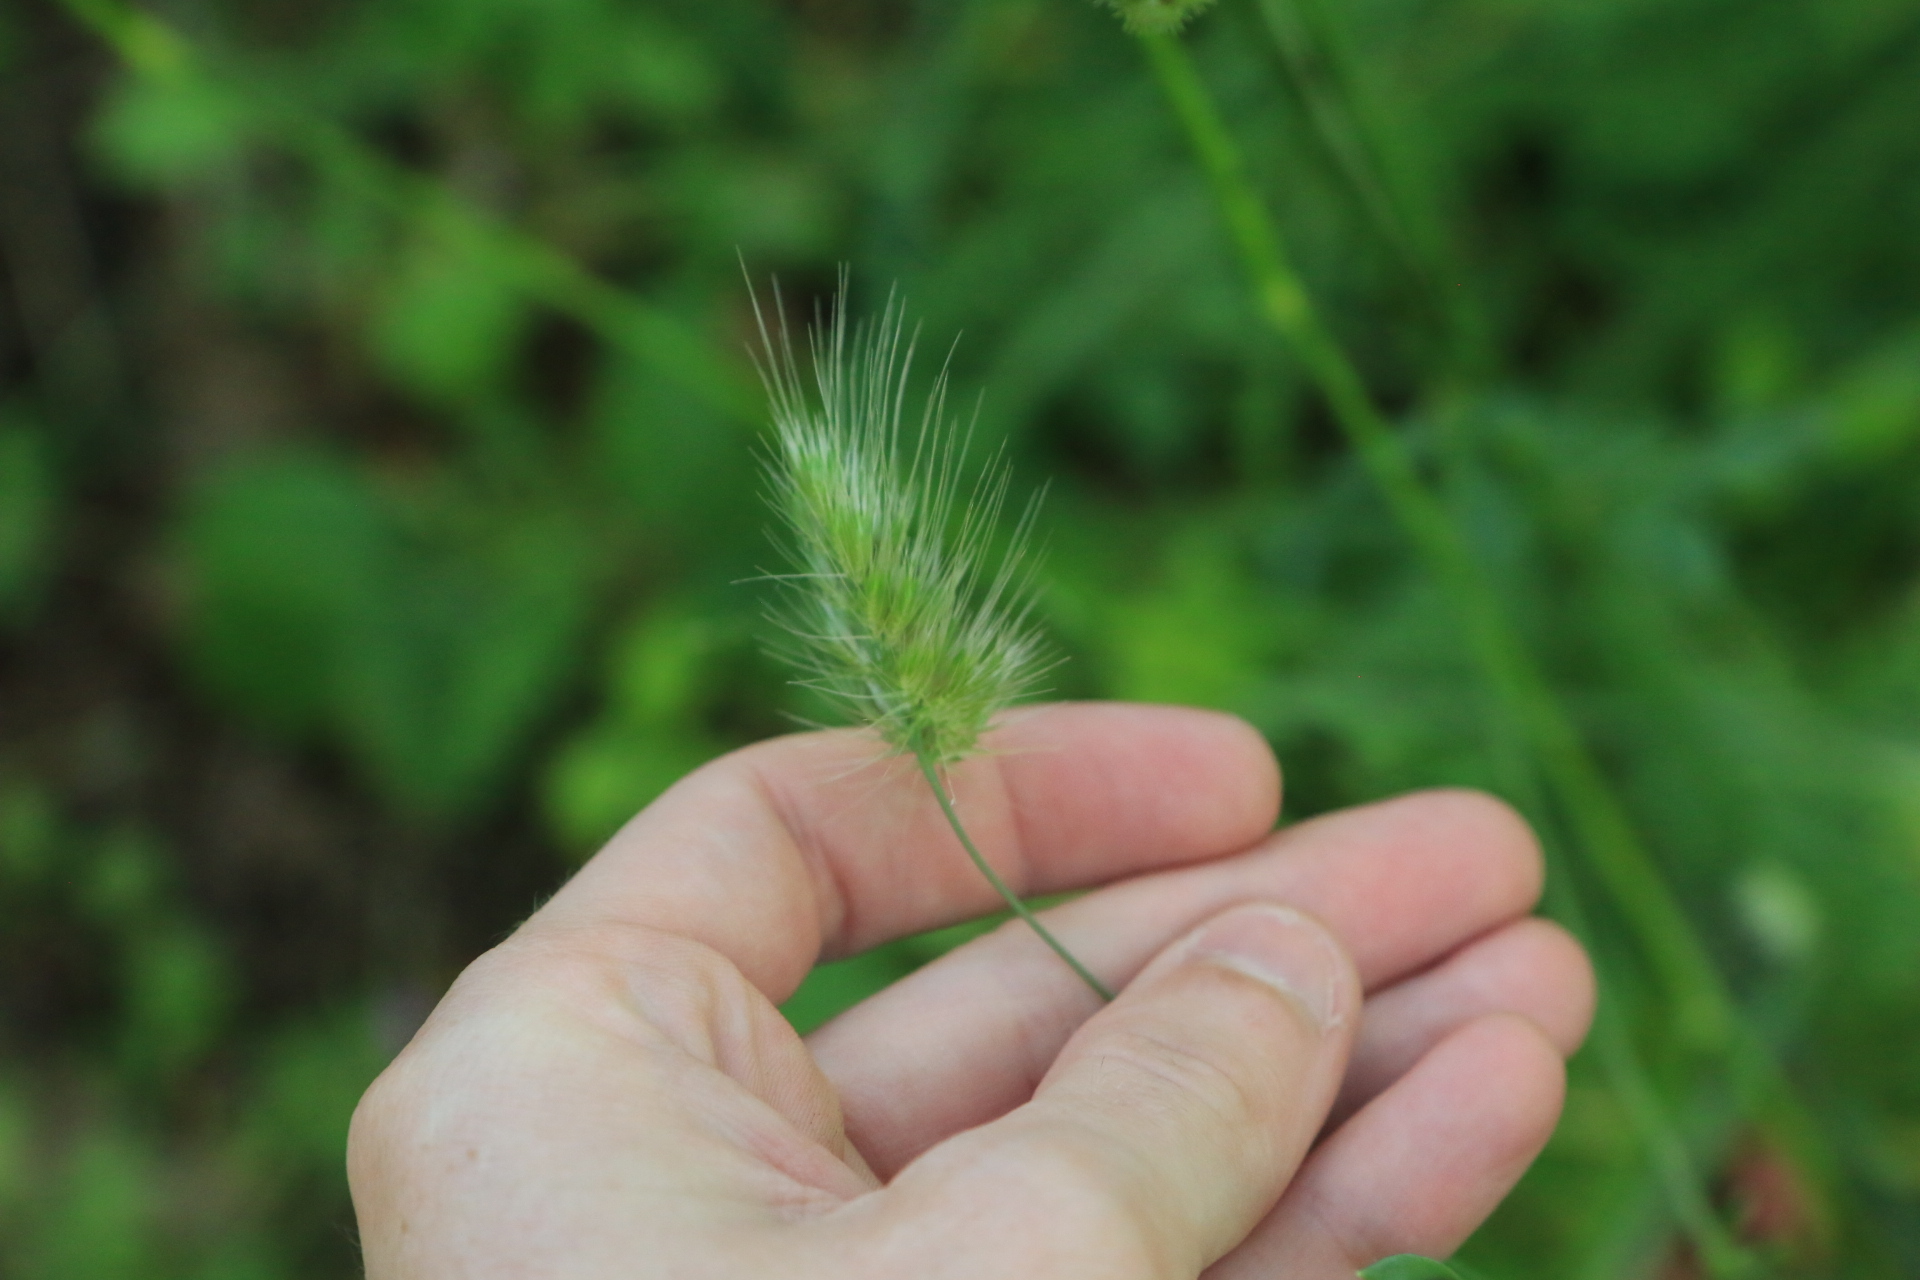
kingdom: Plantae
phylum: Tracheophyta
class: Liliopsida
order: Poales
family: Poaceae
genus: Cynosurus
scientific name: Cynosurus echinatus
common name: Rough dog's-tail
